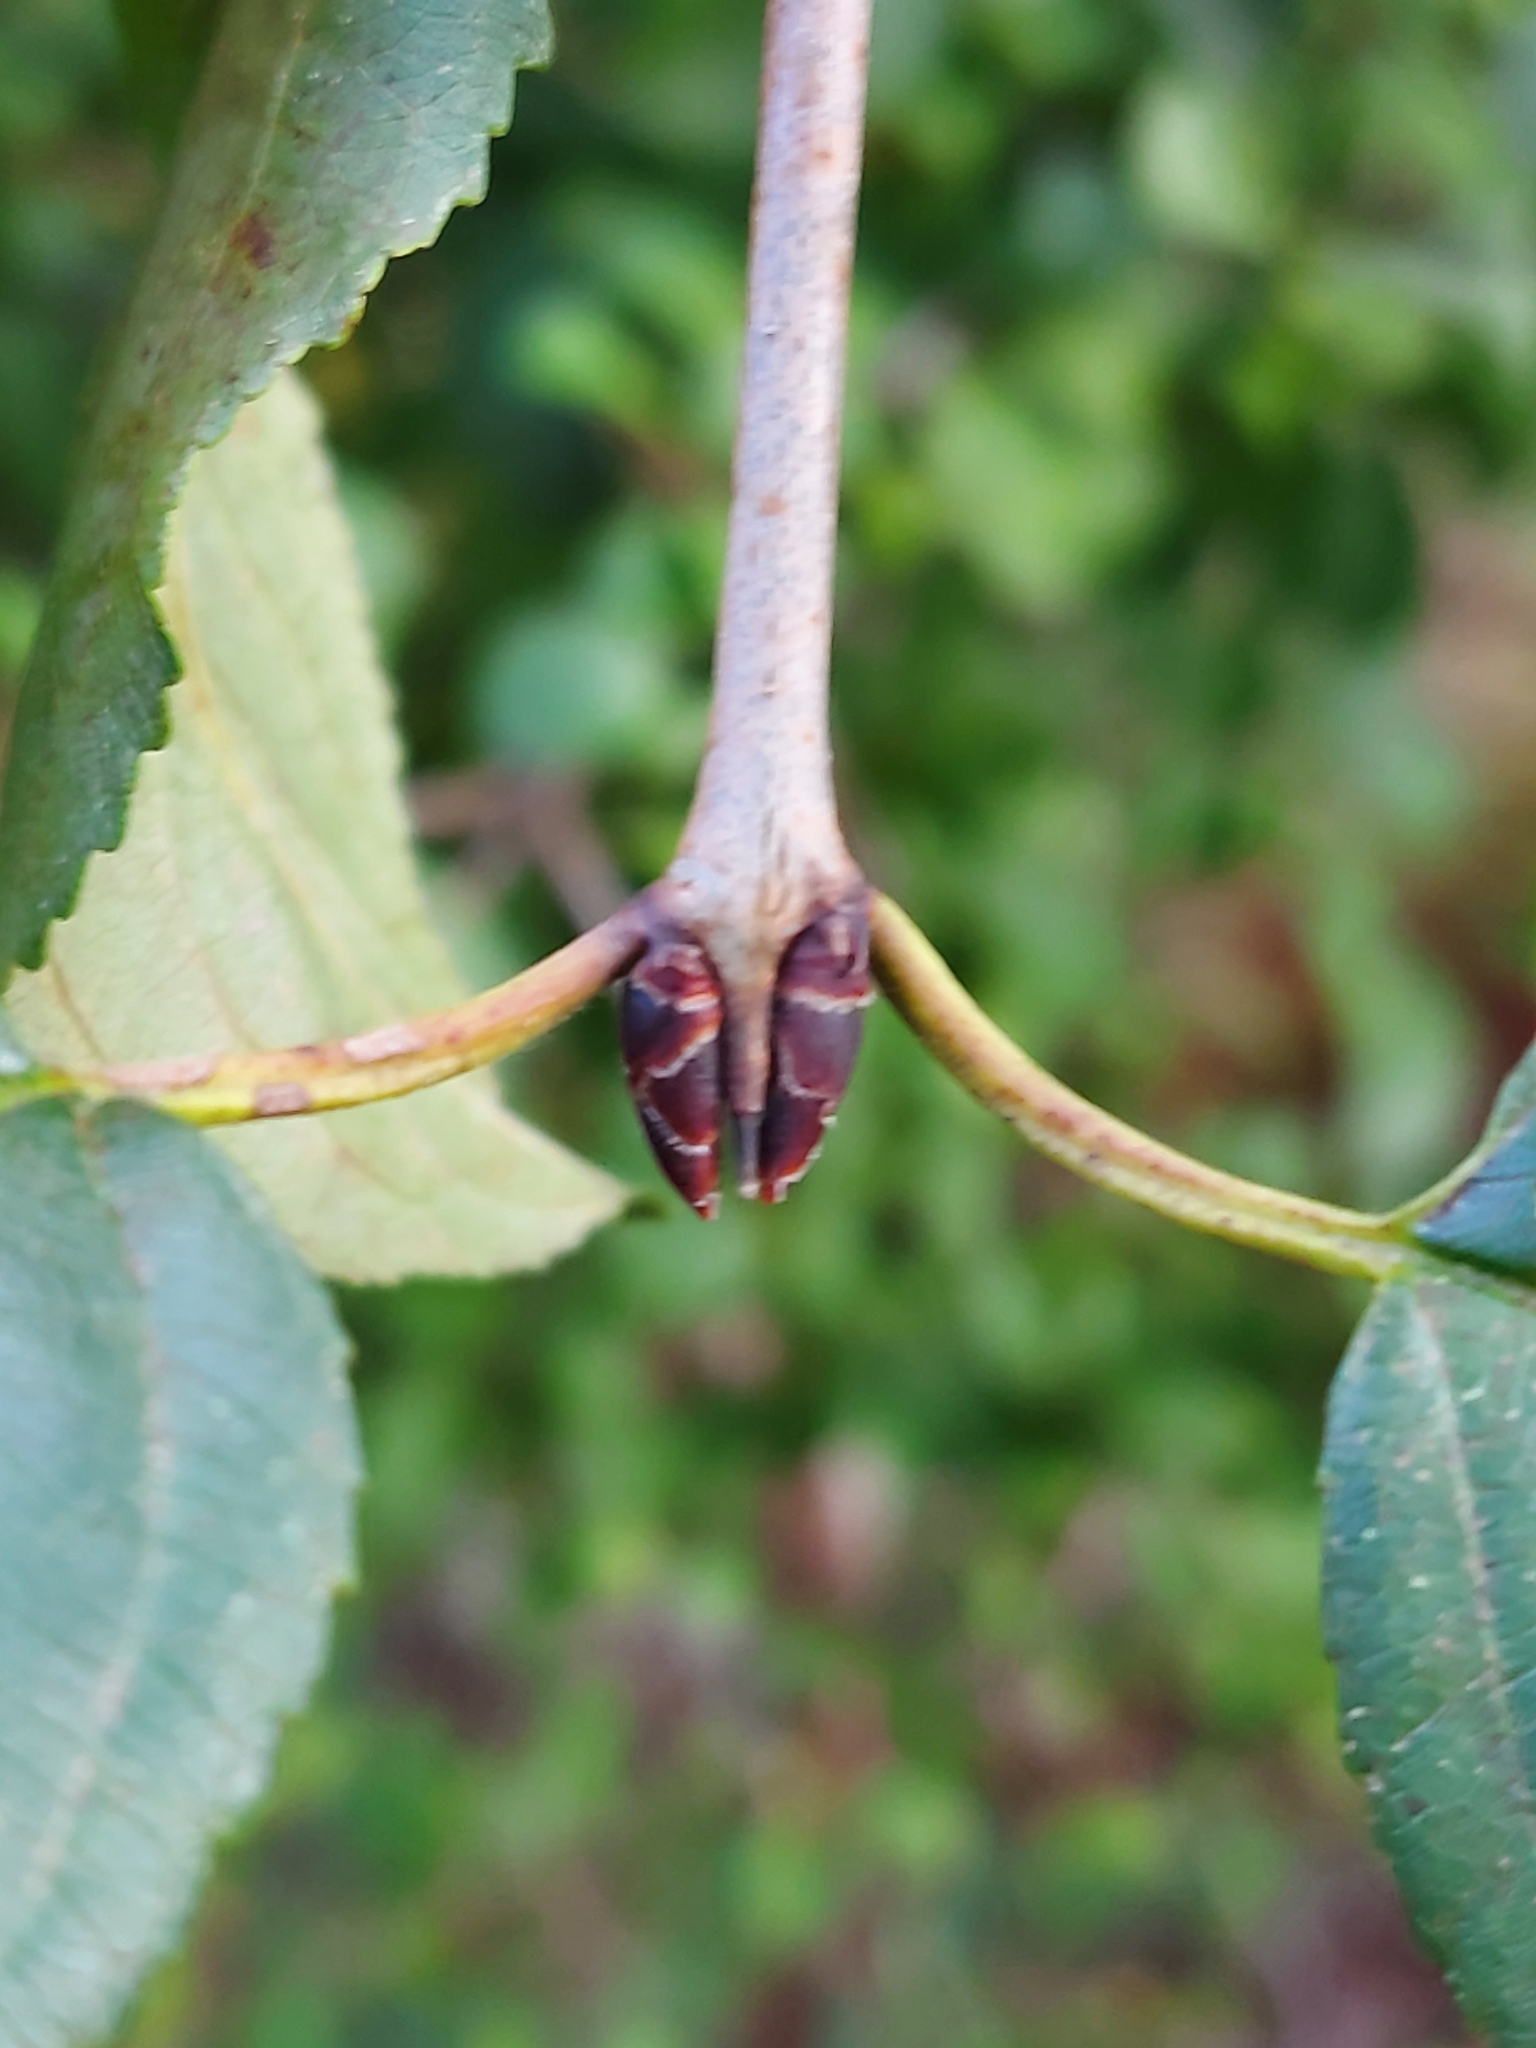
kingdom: Plantae
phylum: Tracheophyta
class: Magnoliopsida
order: Rosales
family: Rhamnaceae
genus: Rhamnus
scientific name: Rhamnus cathartica
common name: Common buckthorn
